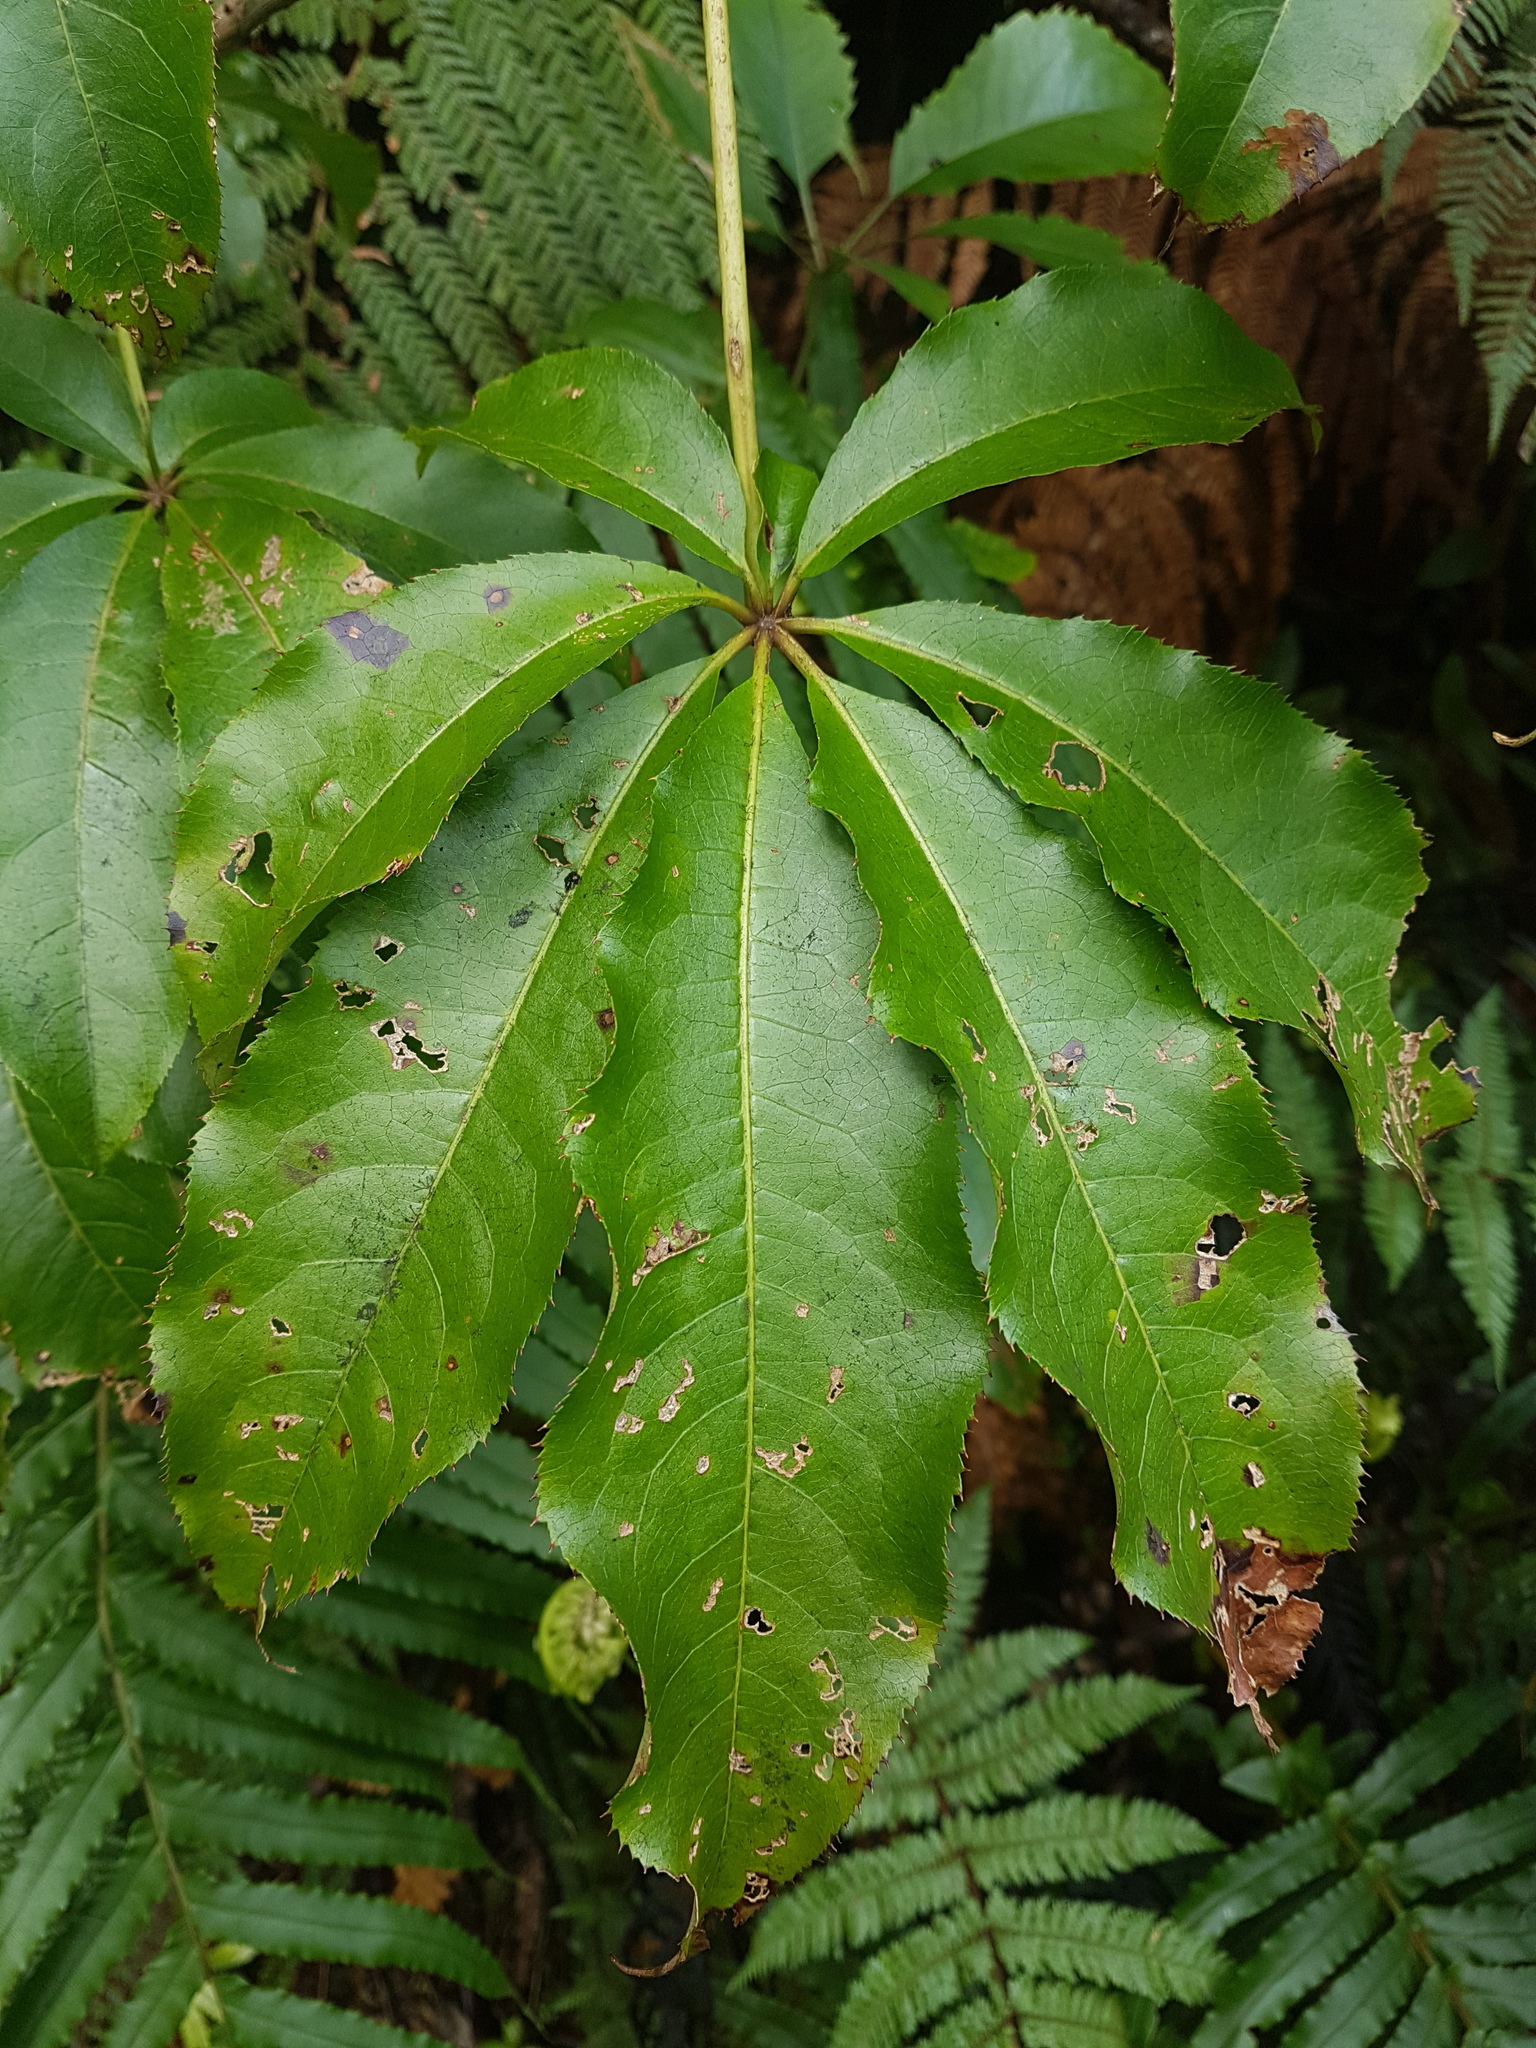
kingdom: Plantae
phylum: Tracheophyta
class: Magnoliopsida
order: Apiales
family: Araliaceae
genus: Schefflera
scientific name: Schefflera digitata
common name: Pate
